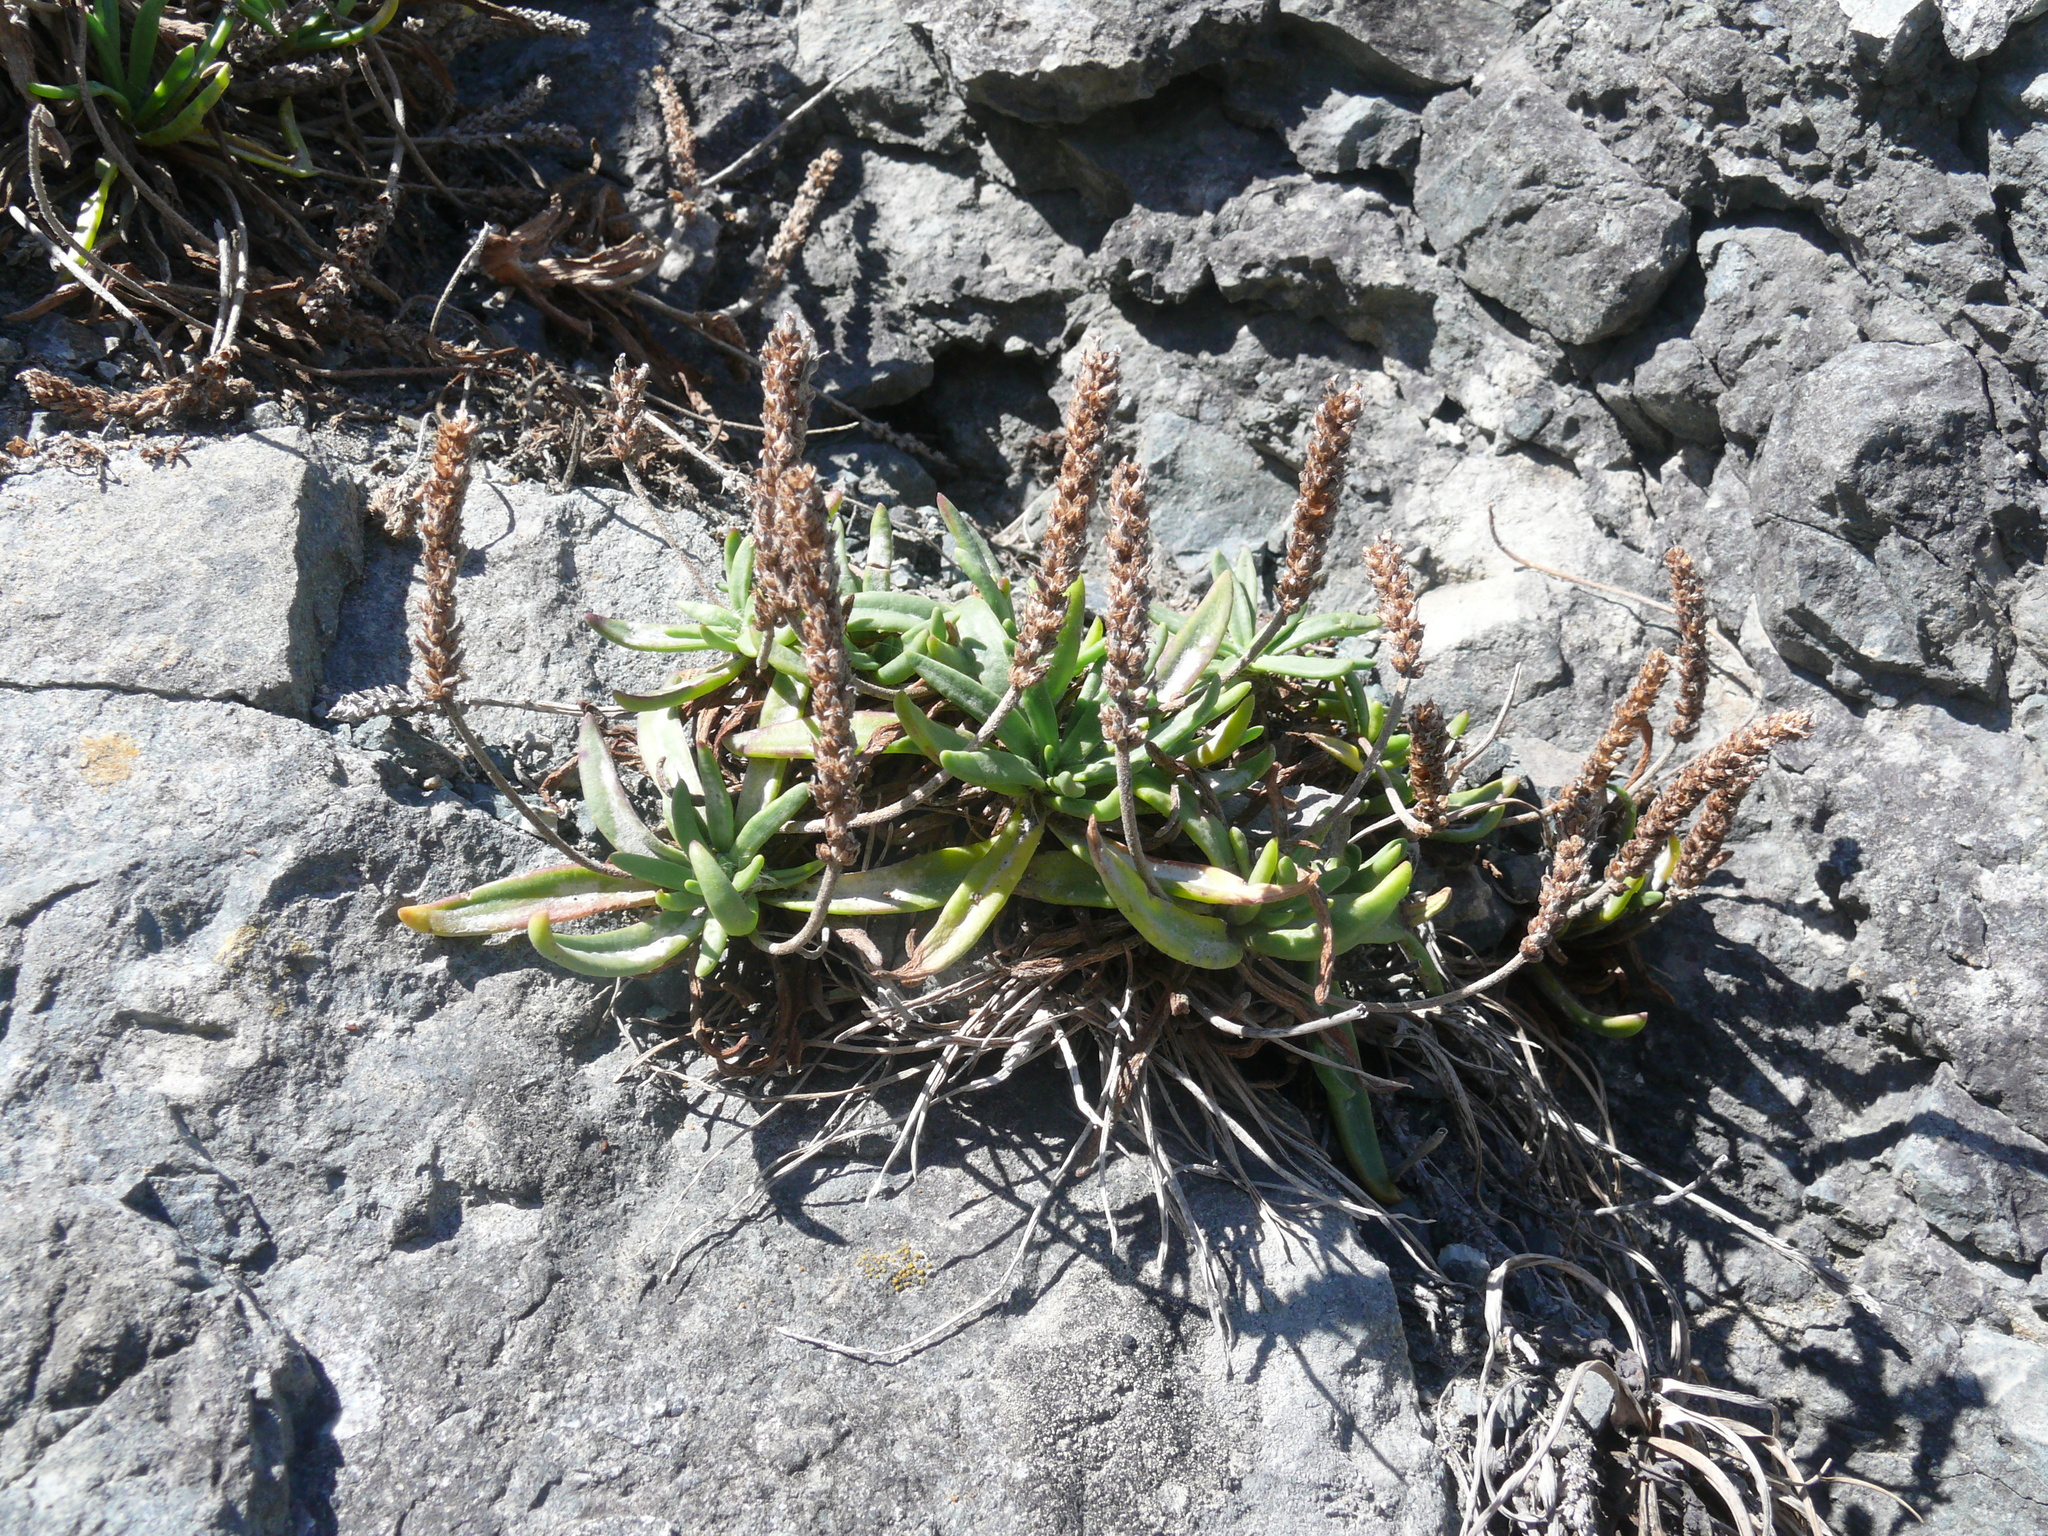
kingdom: Plantae
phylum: Tracheophyta
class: Magnoliopsida
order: Lamiales
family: Plantaginaceae
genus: Plantago
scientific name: Plantago maritima
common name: Sea plantain
